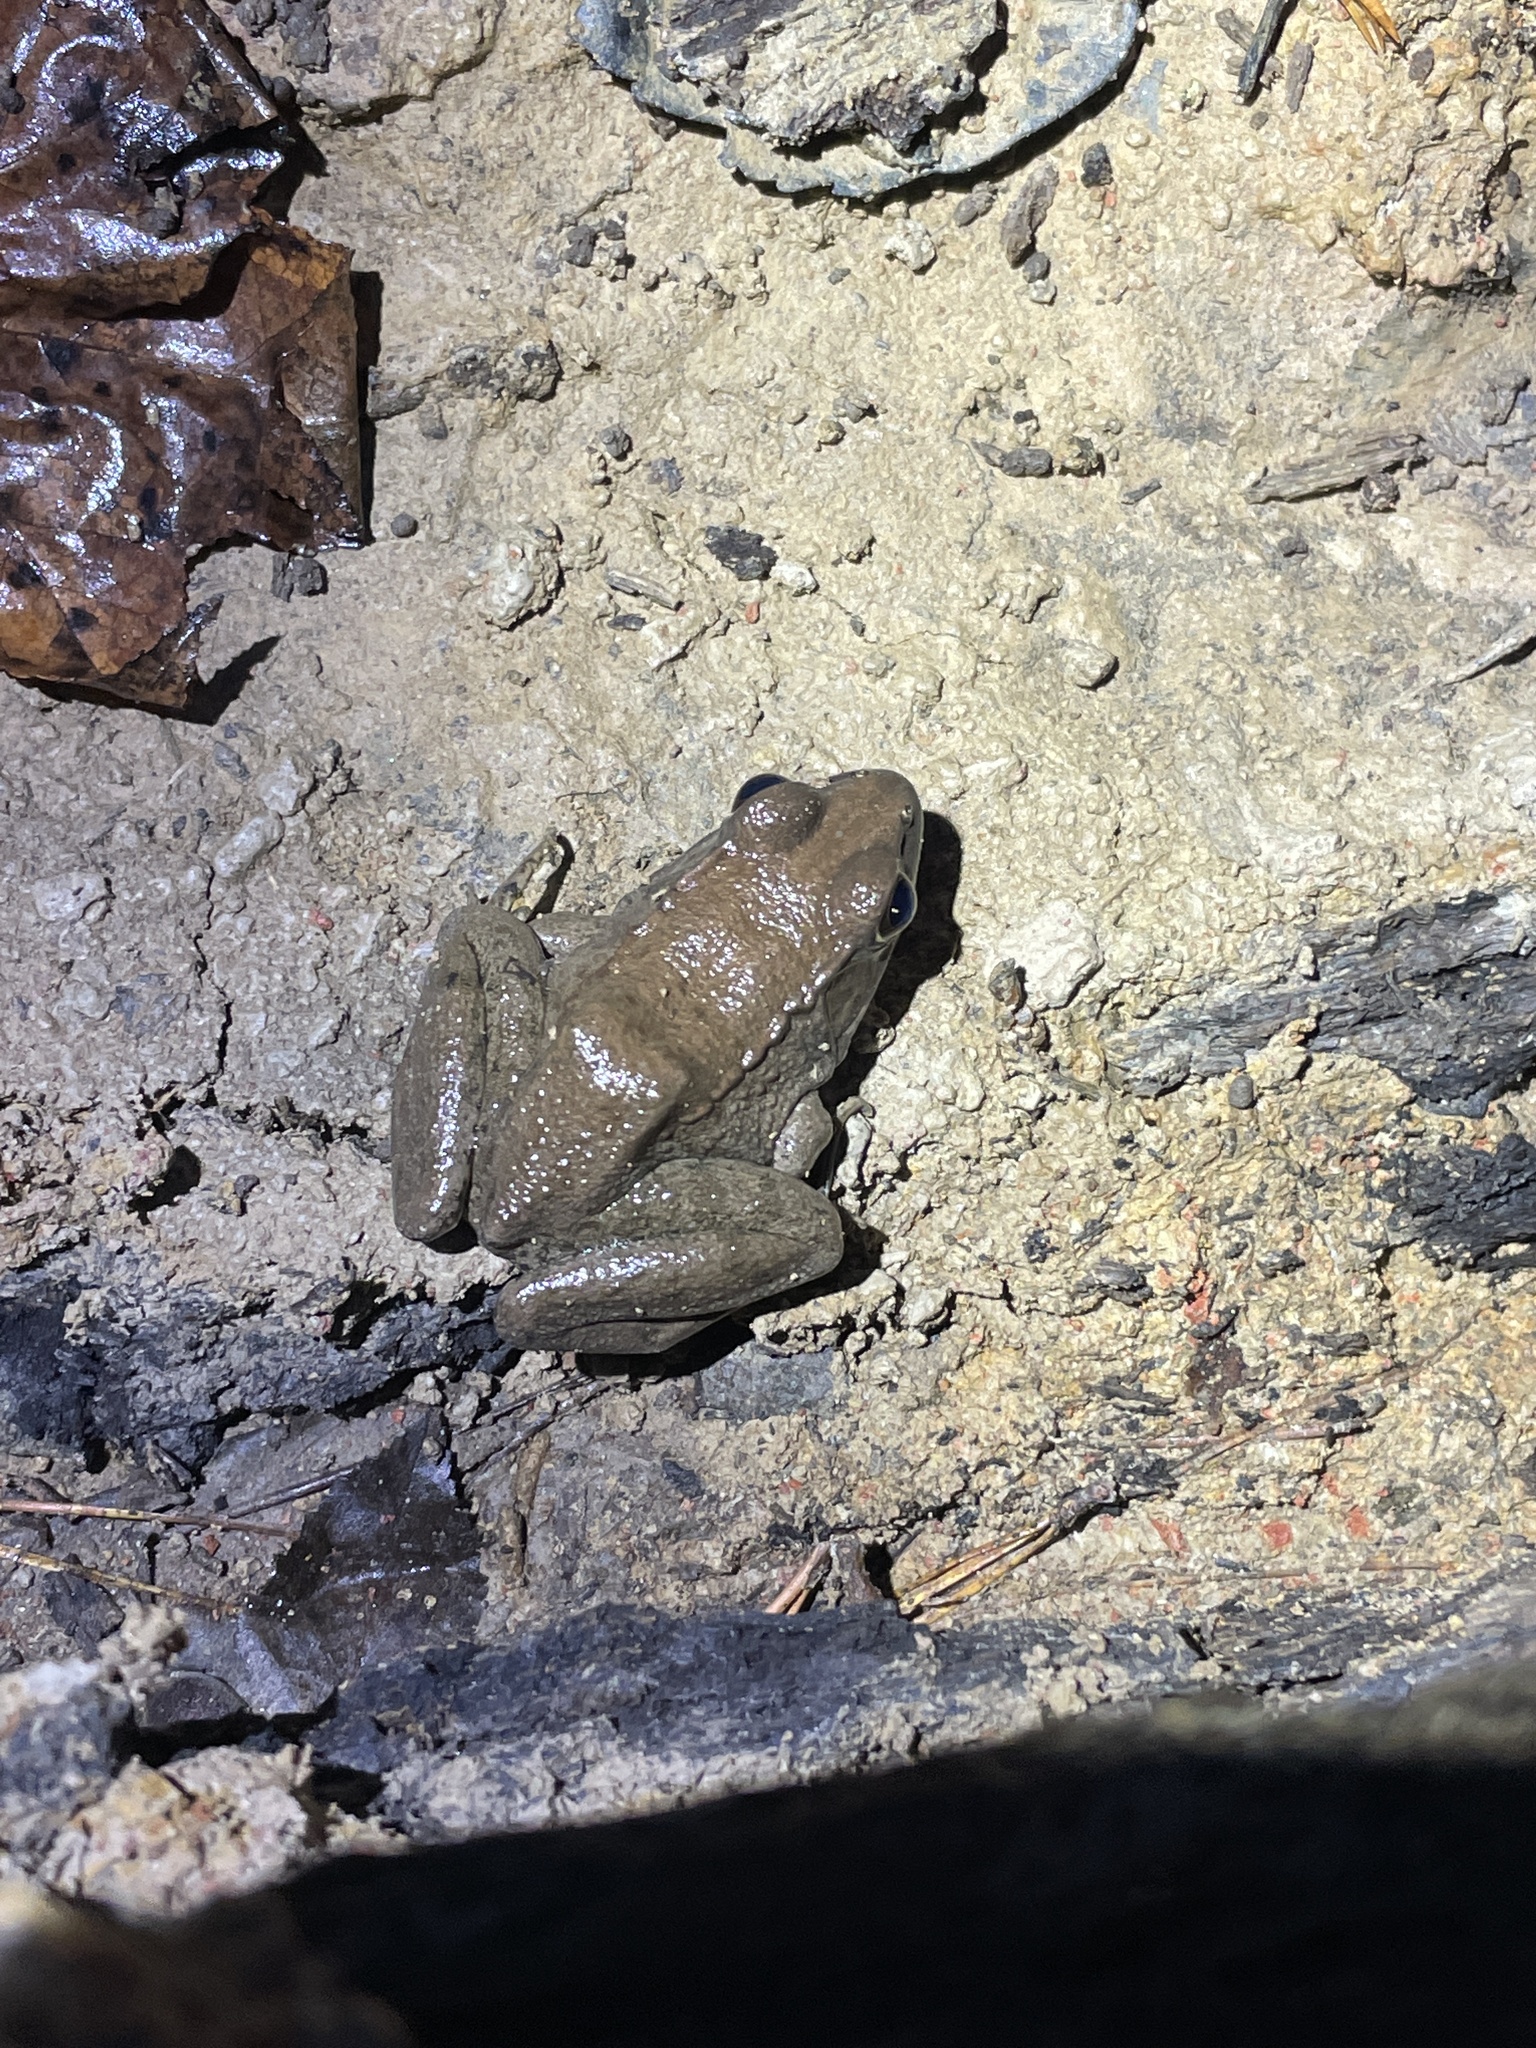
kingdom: Animalia
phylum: Chordata
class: Amphibia
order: Anura
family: Ranidae
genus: Lithobates
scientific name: Lithobates clamitans
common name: Green frog
